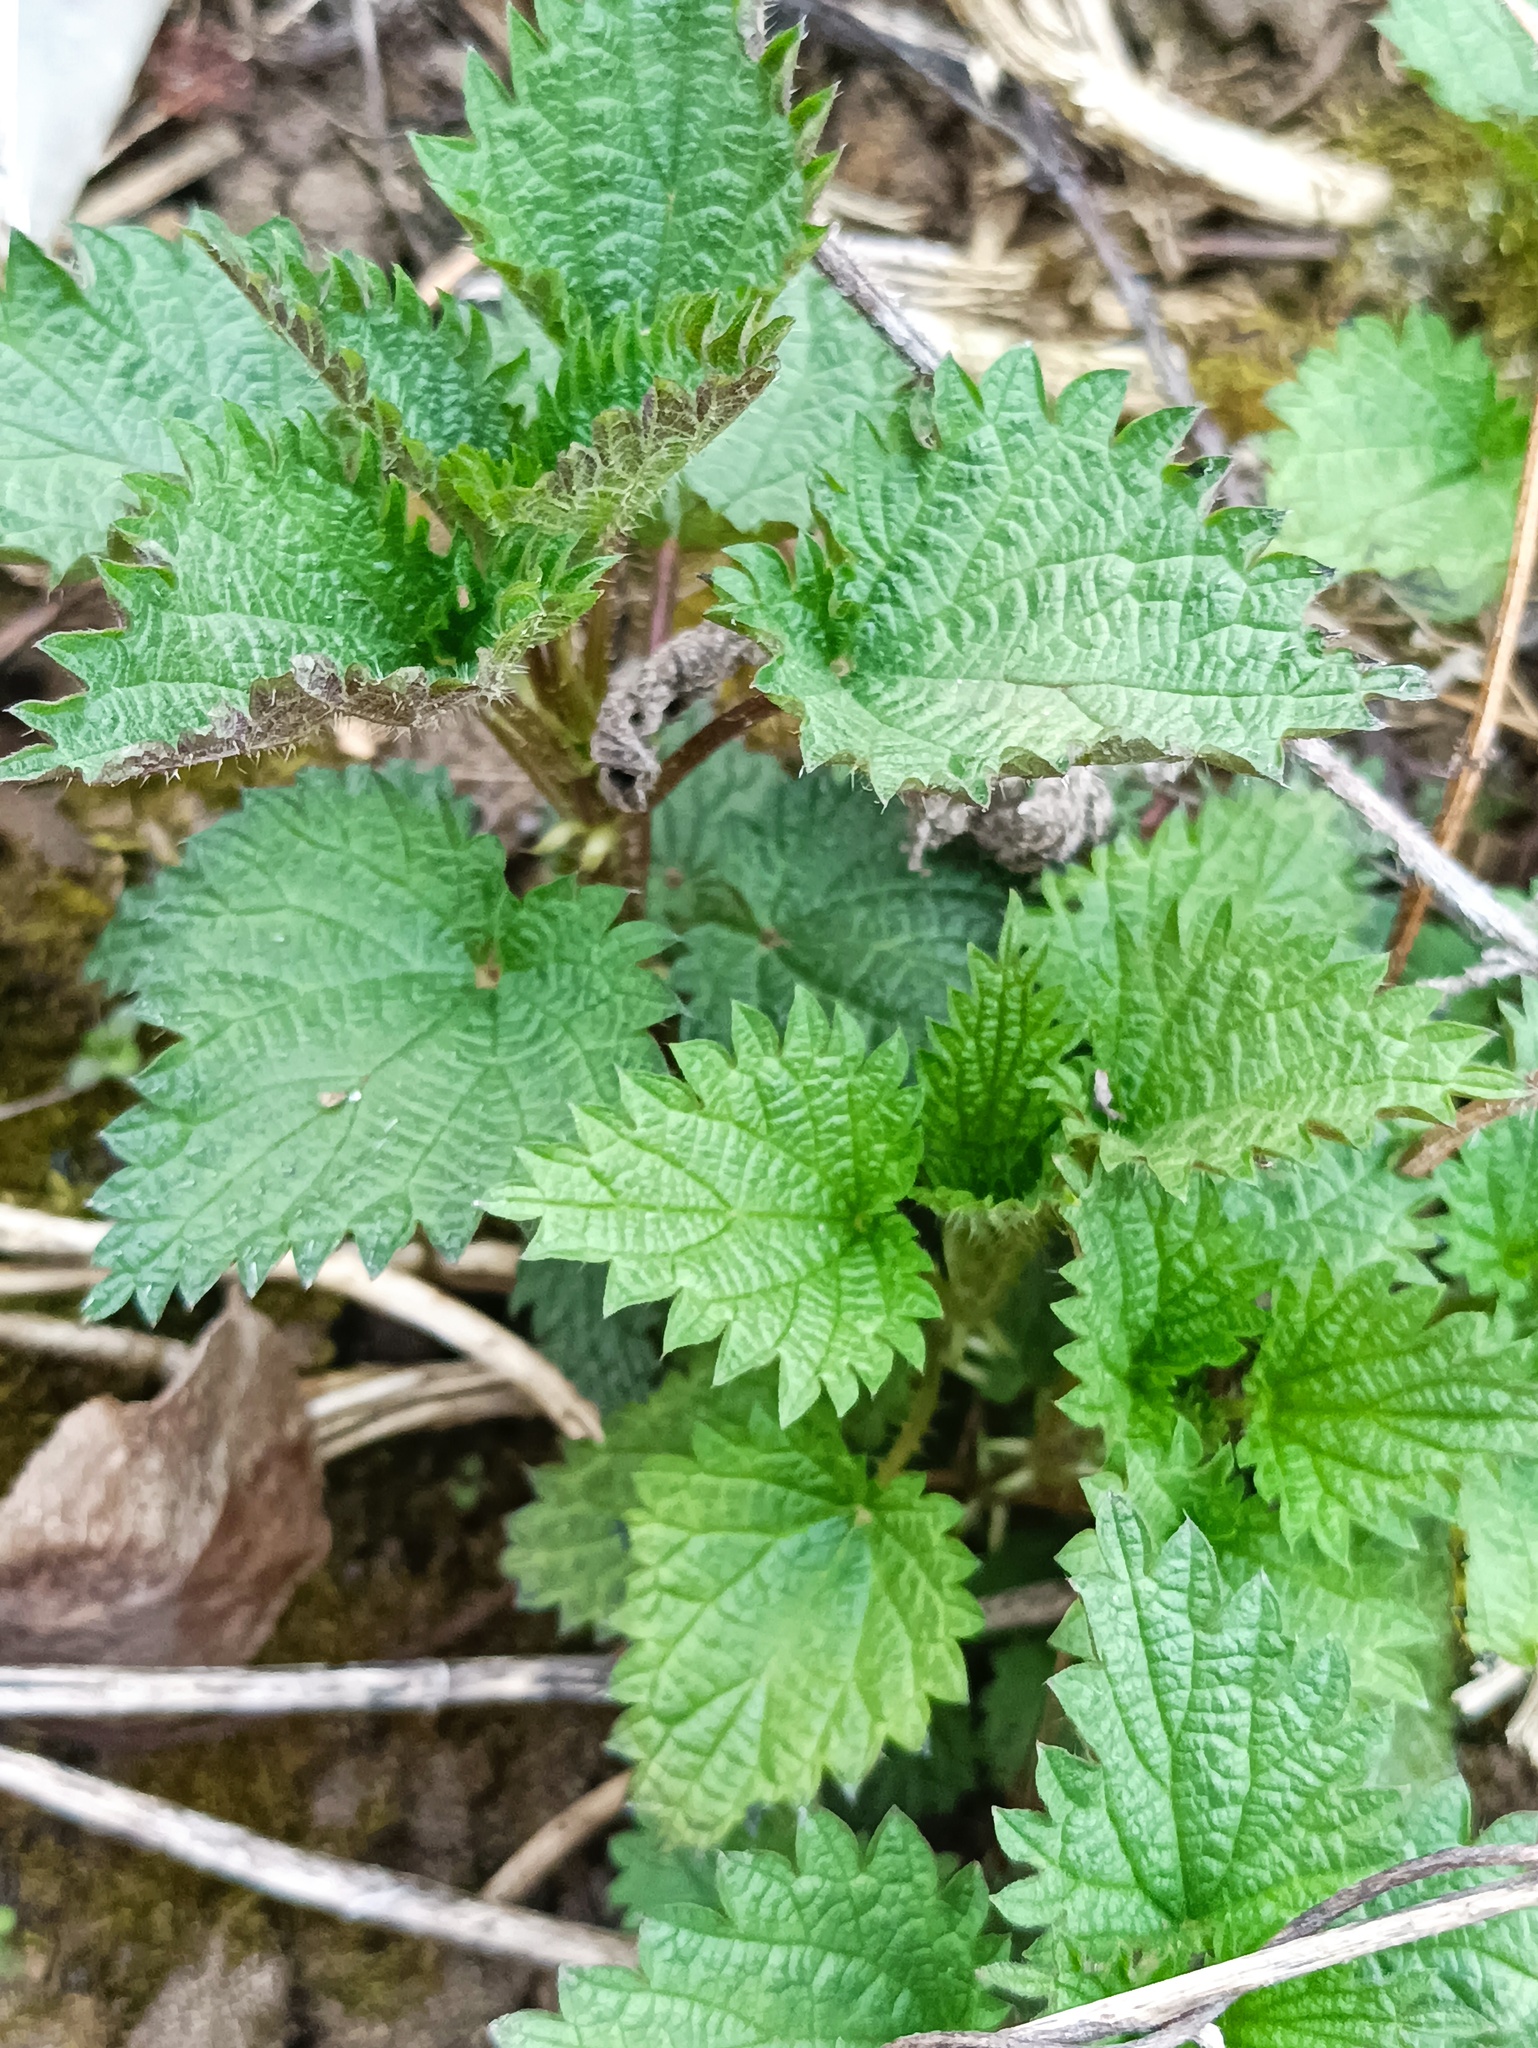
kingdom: Plantae
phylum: Tracheophyta
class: Magnoliopsida
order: Rosales
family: Urticaceae
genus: Urtica
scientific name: Urtica dioica
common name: Common nettle
